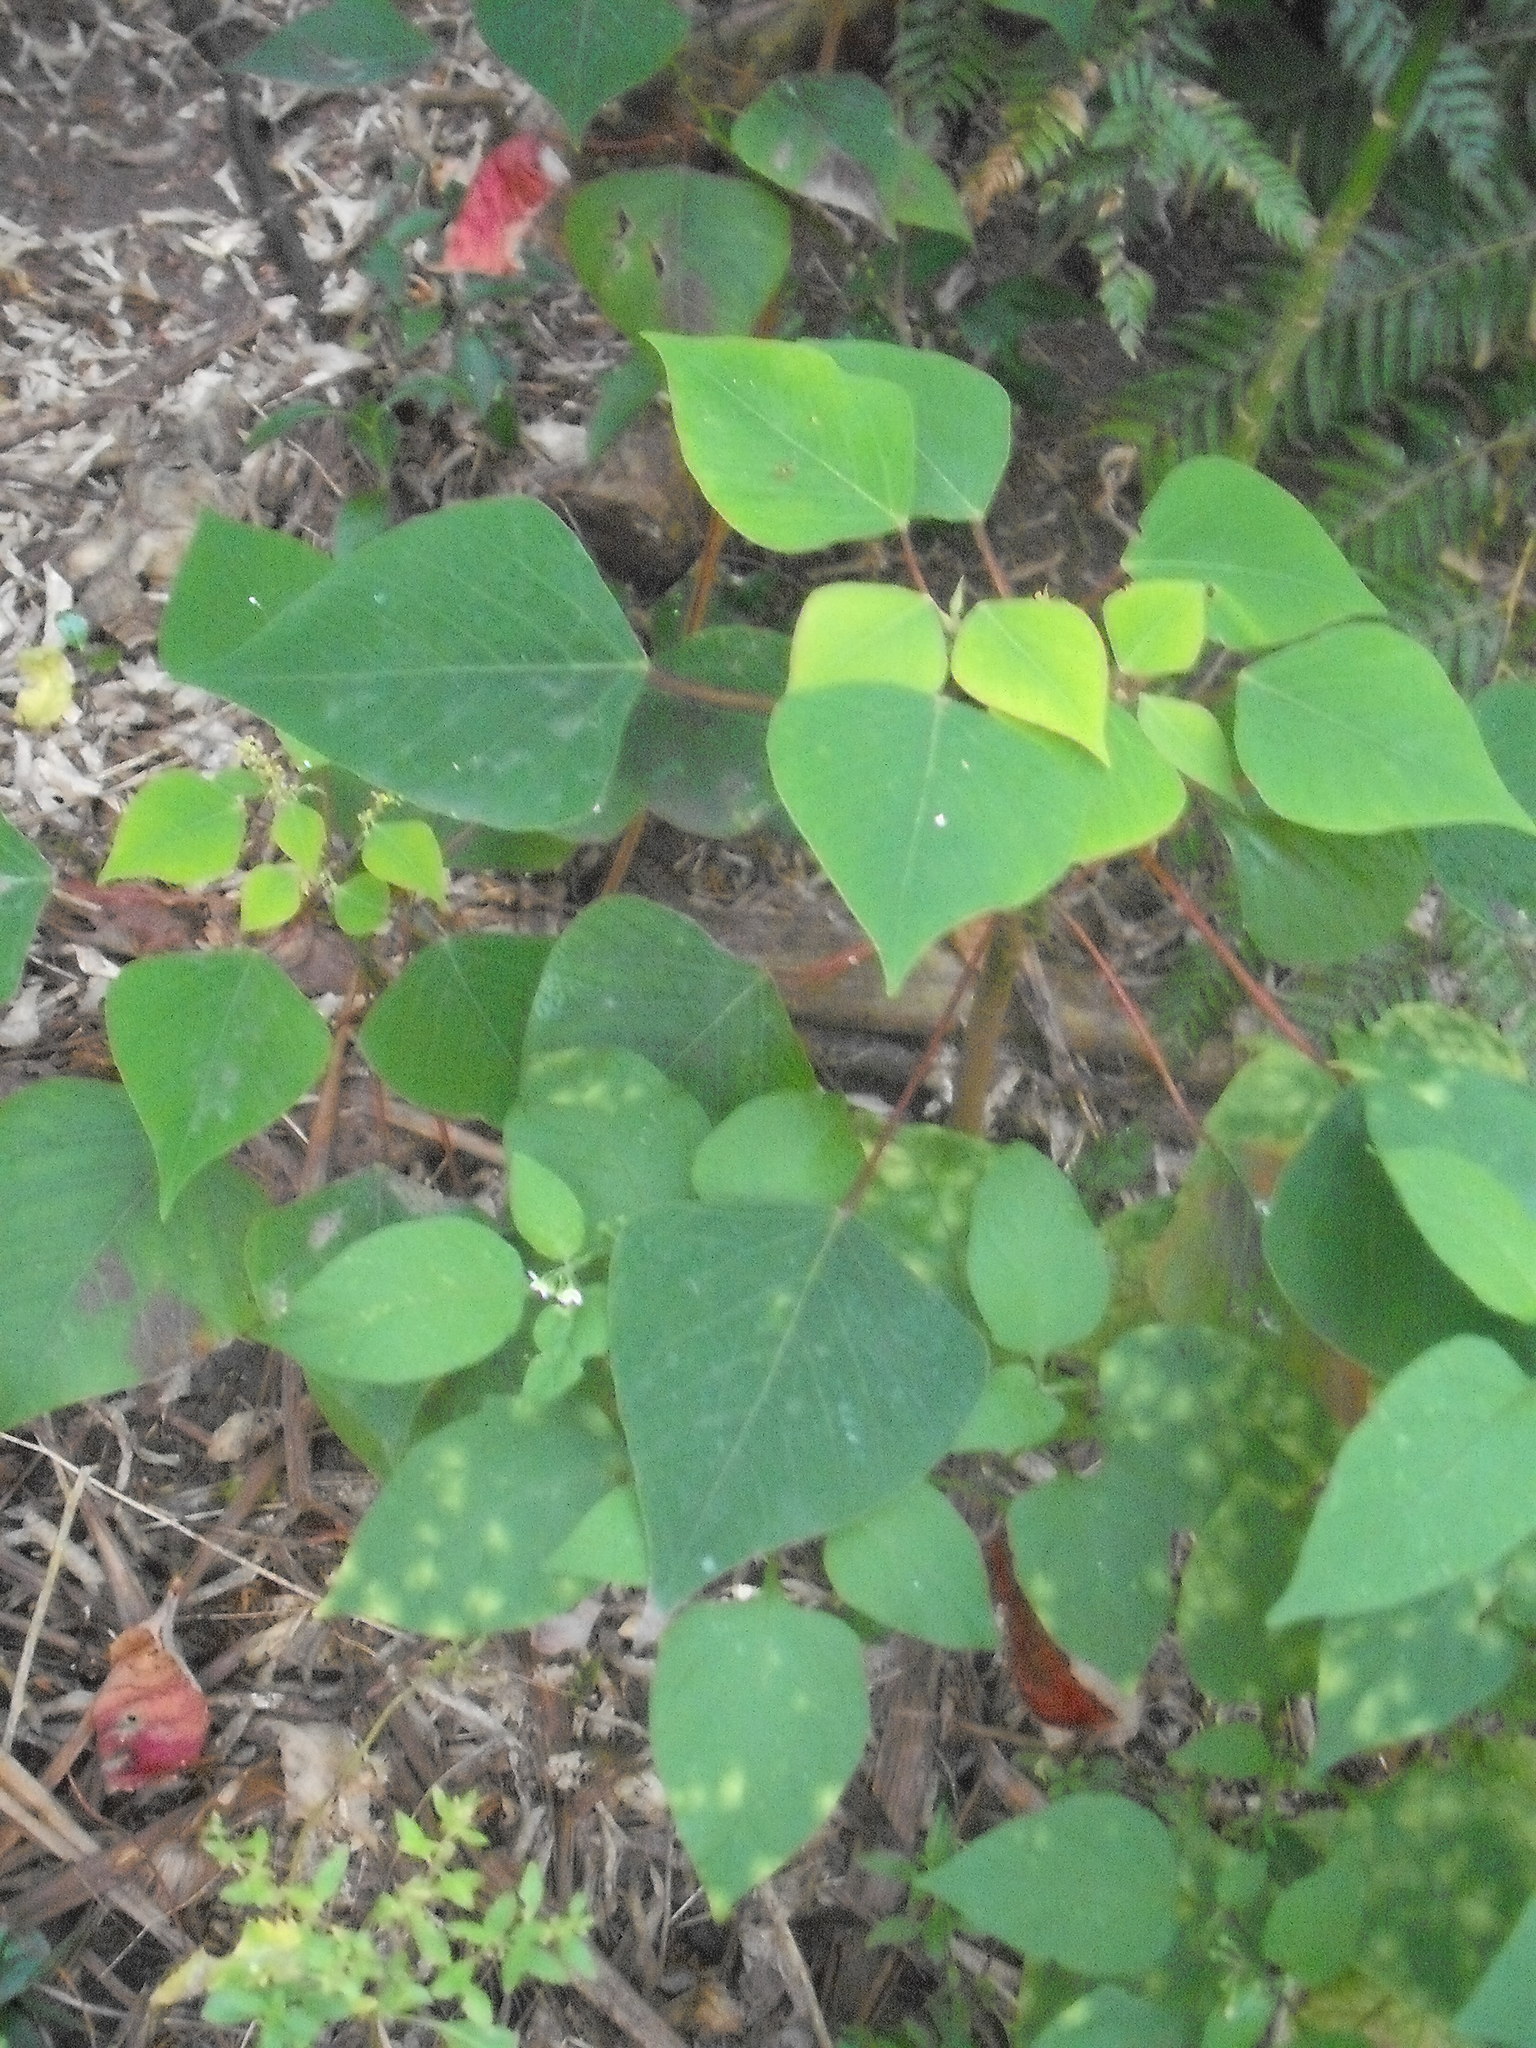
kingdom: Plantae
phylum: Tracheophyta
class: Magnoliopsida
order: Malpighiales
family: Euphorbiaceae
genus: Homalanthus
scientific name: Homalanthus populifolius
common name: Queensland poplar
